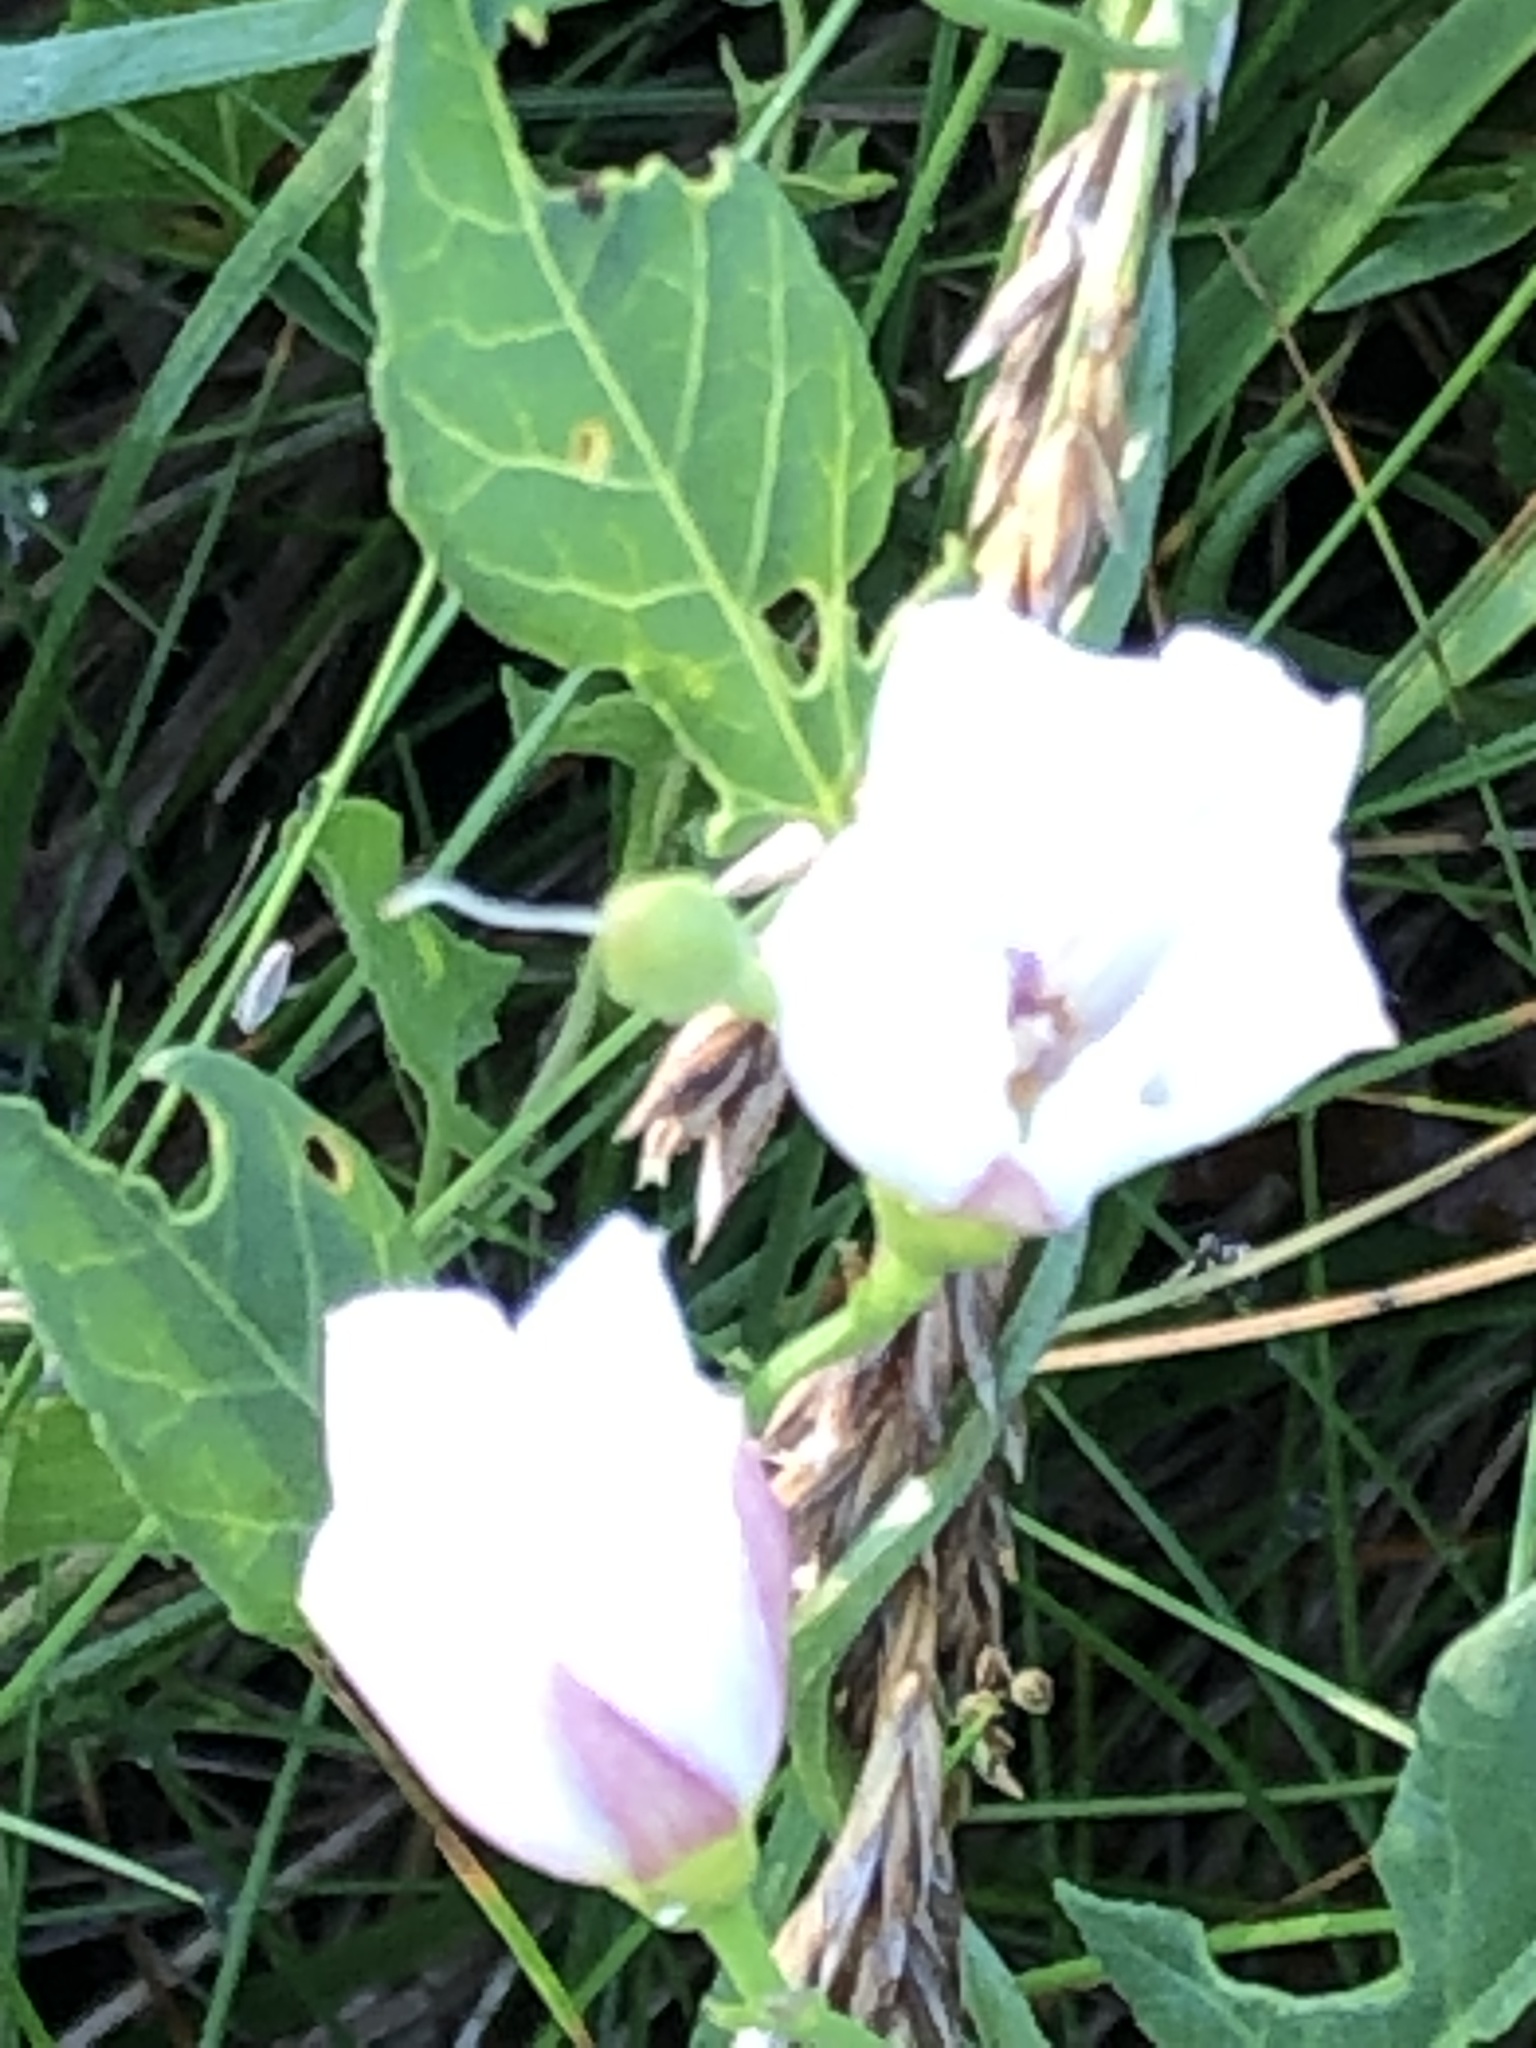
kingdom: Plantae
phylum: Tracheophyta
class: Magnoliopsida
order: Solanales
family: Convolvulaceae
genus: Convolvulus
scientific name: Convolvulus arvensis
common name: Field bindweed
